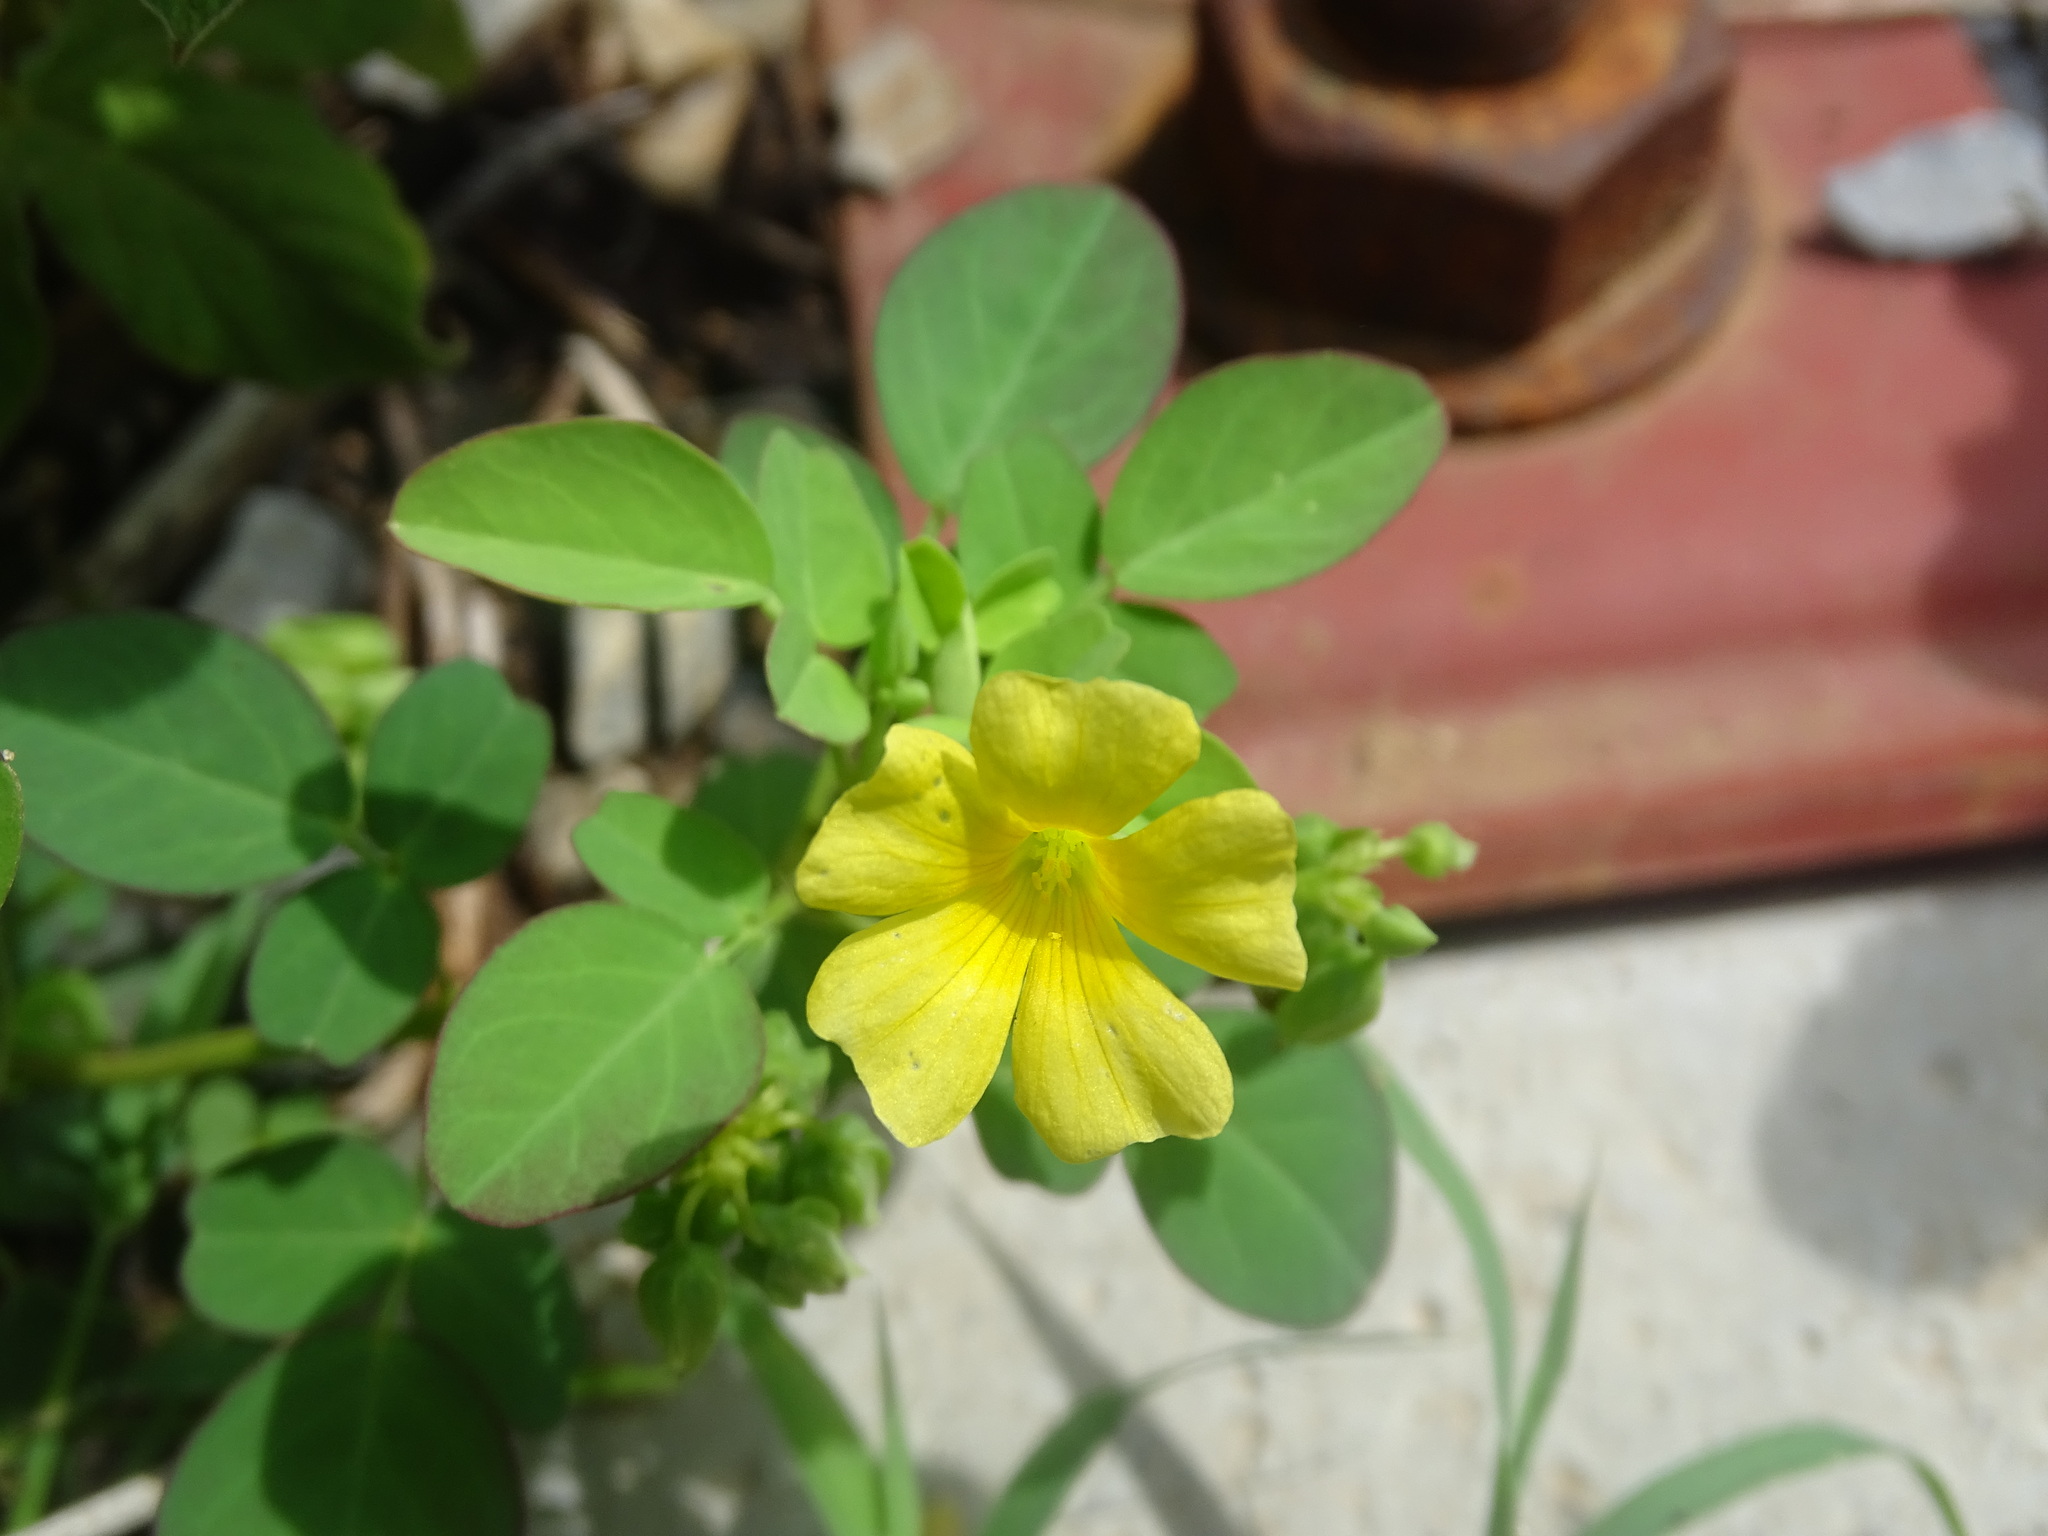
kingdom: Plantae
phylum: Tracheophyta
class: Magnoliopsida
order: Oxalidales
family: Oxalidaceae
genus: Oxalis
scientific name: Oxalis frutescens
